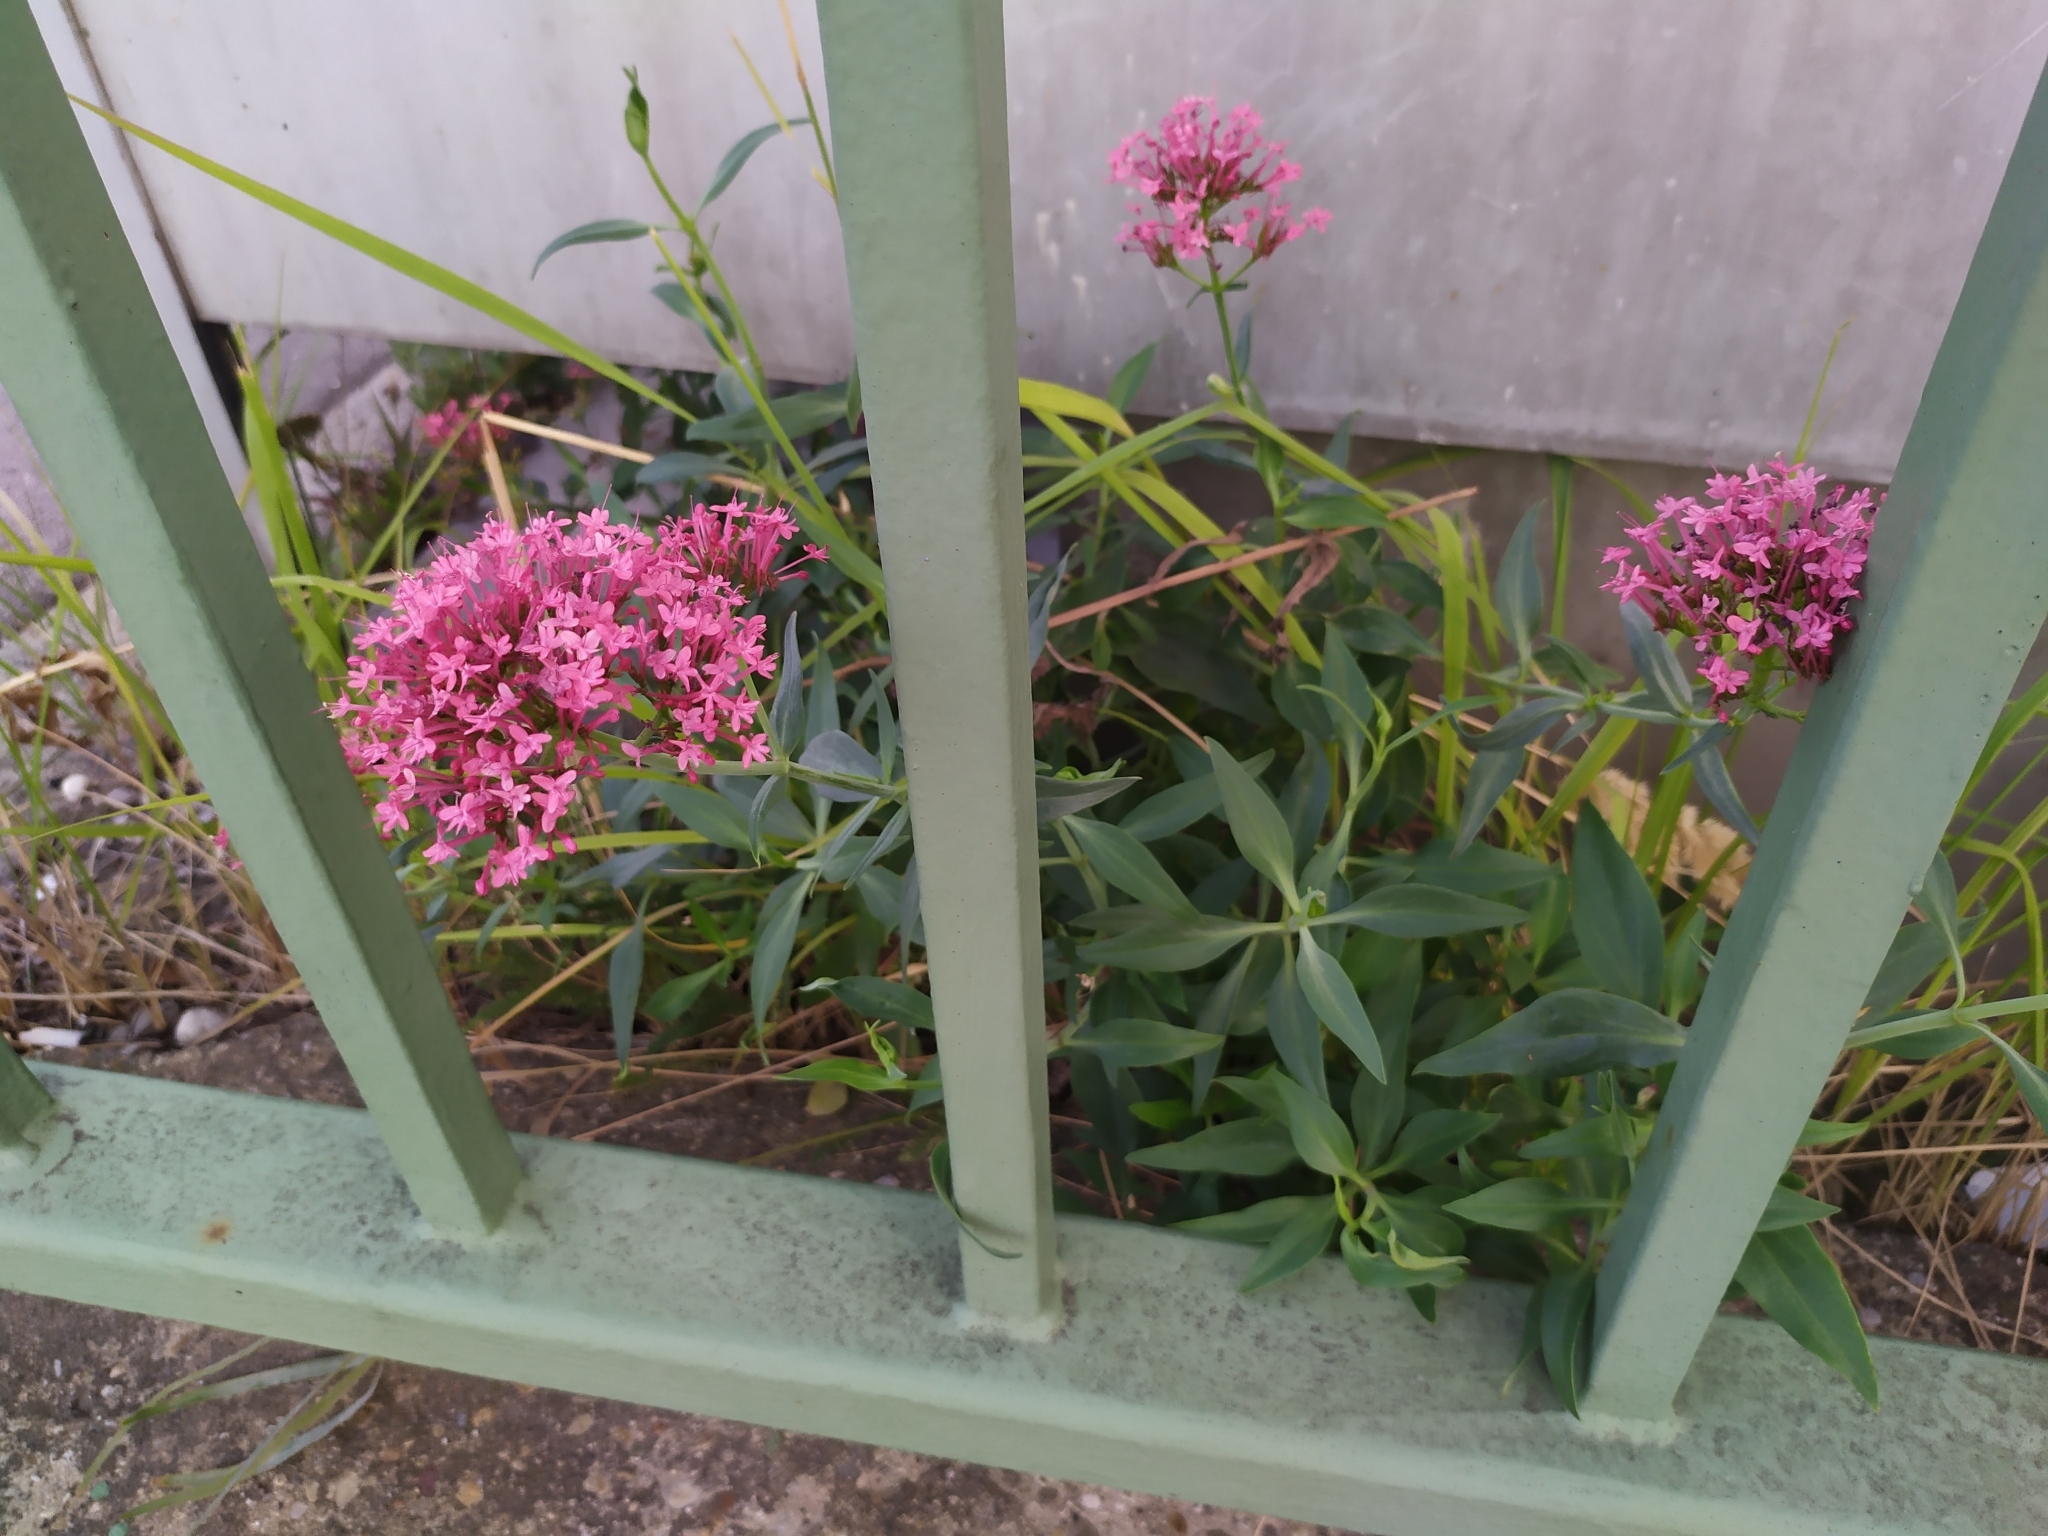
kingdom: Plantae
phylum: Tracheophyta
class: Magnoliopsida
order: Dipsacales
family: Caprifoliaceae
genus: Centranthus
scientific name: Centranthus ruber
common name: Red valerian
